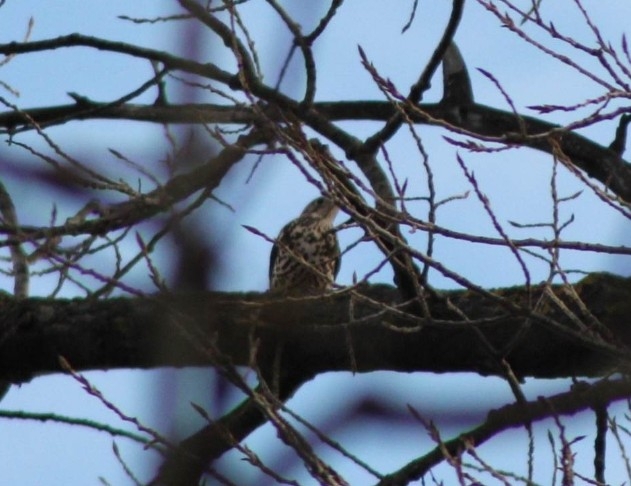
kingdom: Animalia
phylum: Chordata
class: Aves
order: Passeriformes
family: Turdidae
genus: Turdus
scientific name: Turdus viscivorus
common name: Mistle thrush
